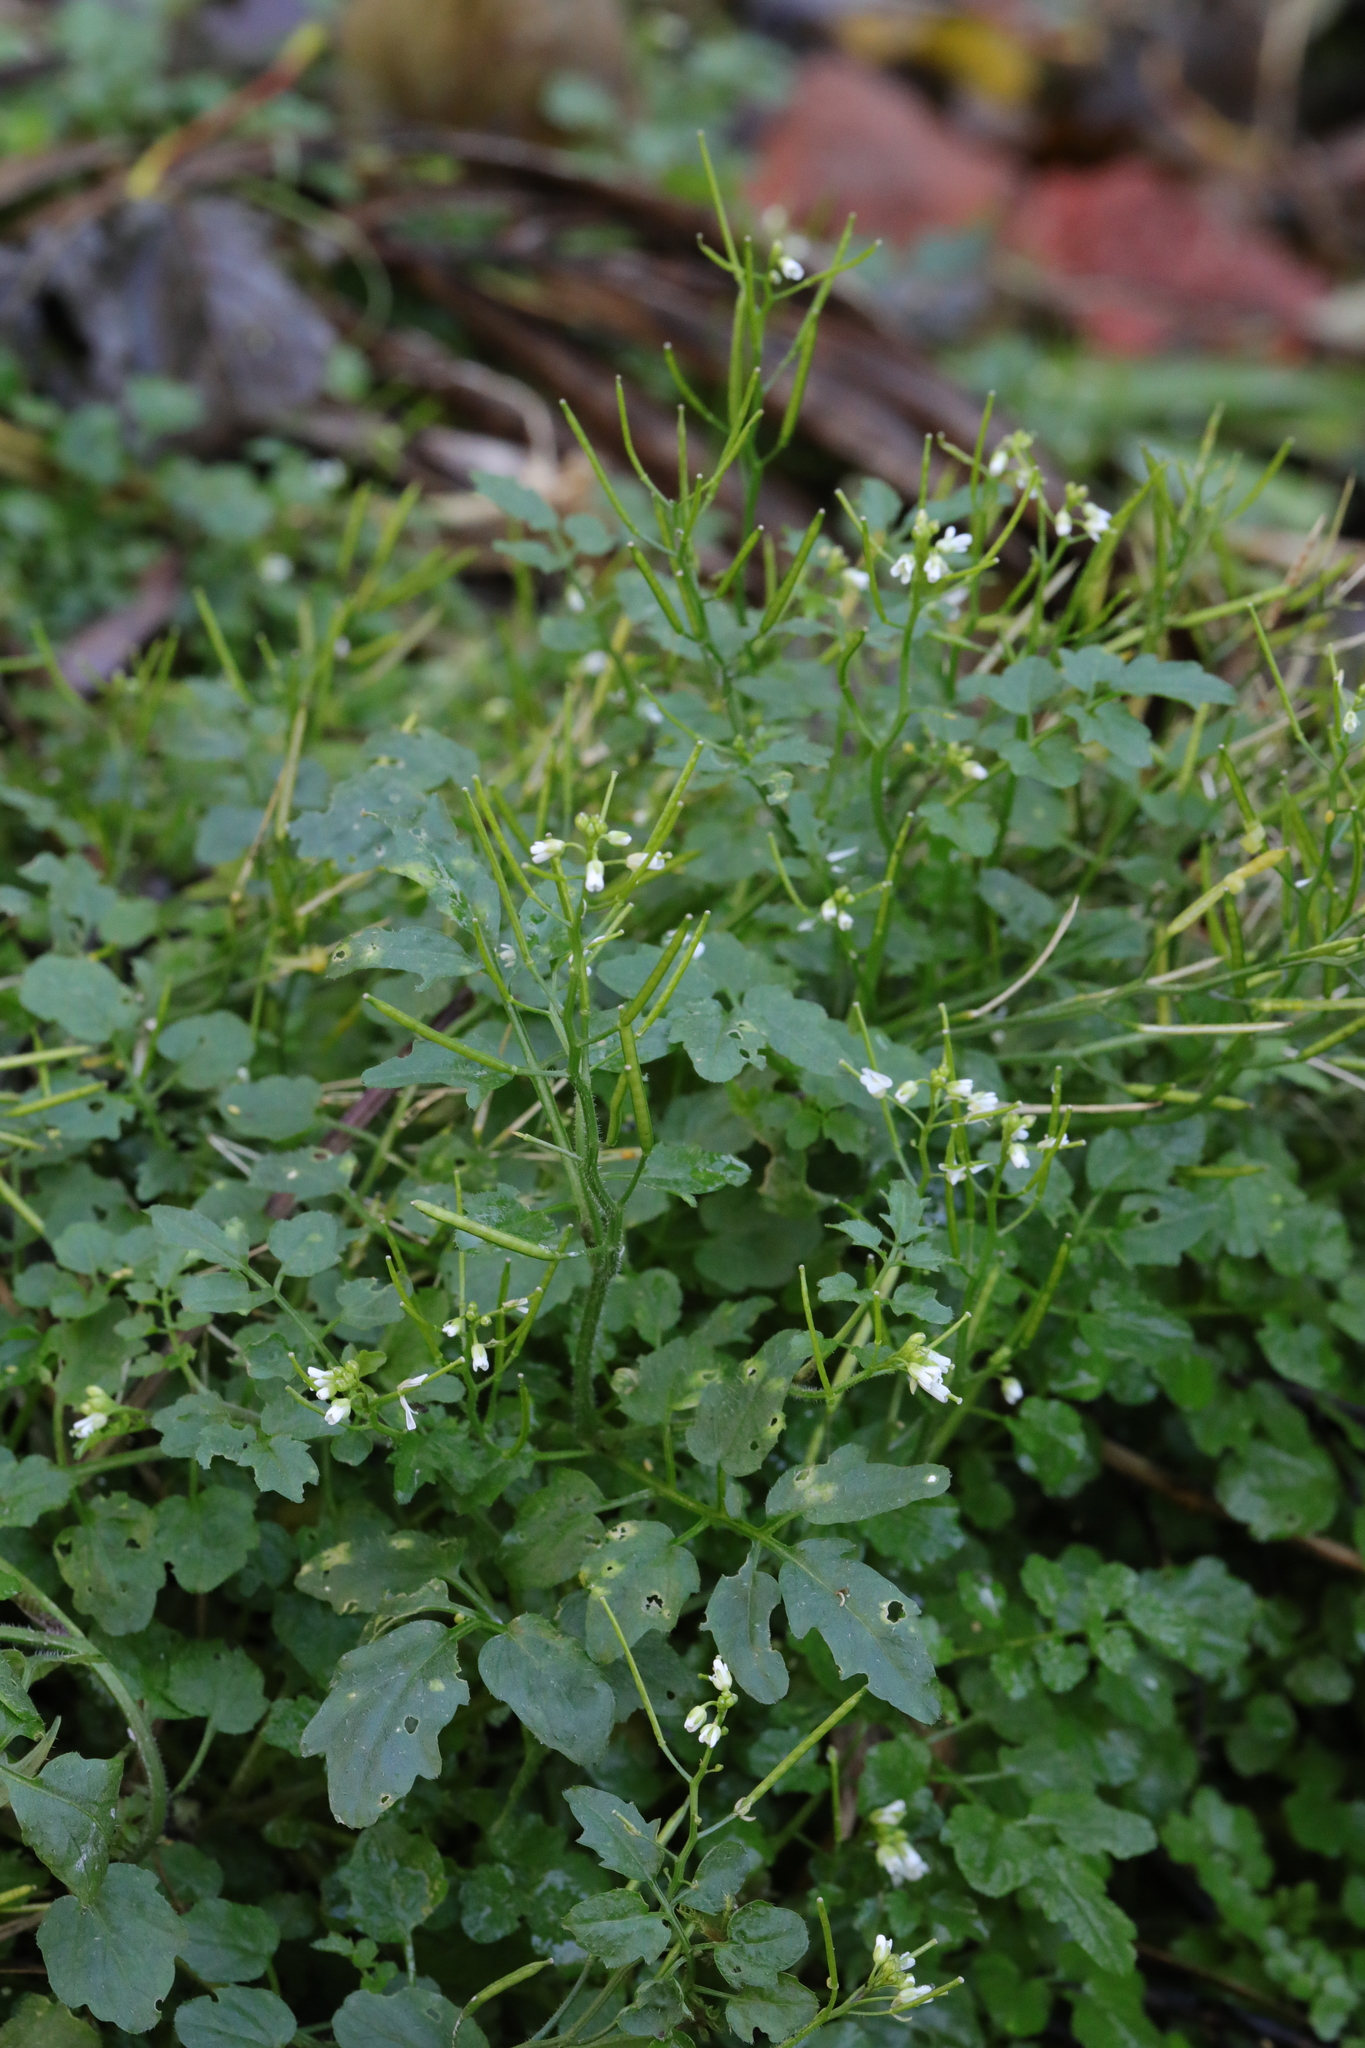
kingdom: Plantae
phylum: Tracheophyta
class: Magnoliopsida
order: Brassicales
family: Brassicaceae
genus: Cardamine
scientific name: Cardamine flexuosa
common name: Woodland bittercress
